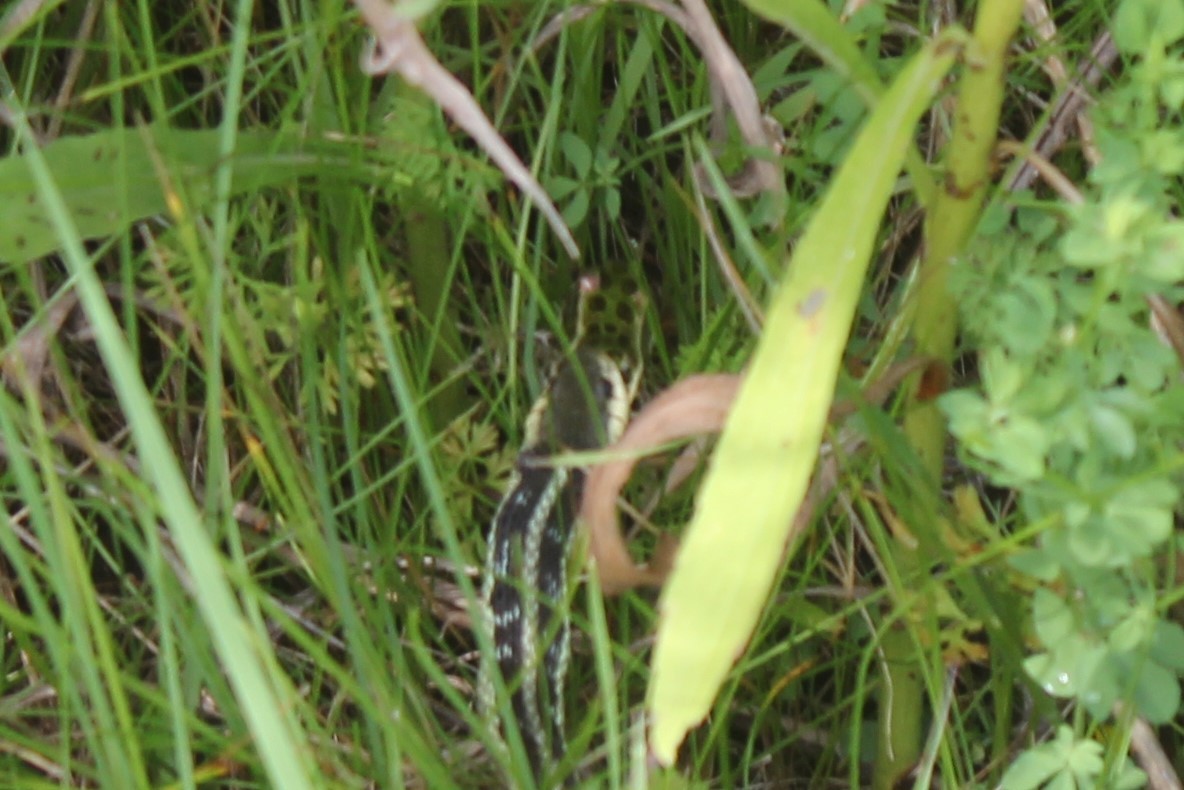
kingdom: Animalia
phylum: Chordata
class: Amphibia
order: Anura
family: Ranidae
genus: Lithobates
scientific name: Lithobates pipiens
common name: Northern leopard frog
